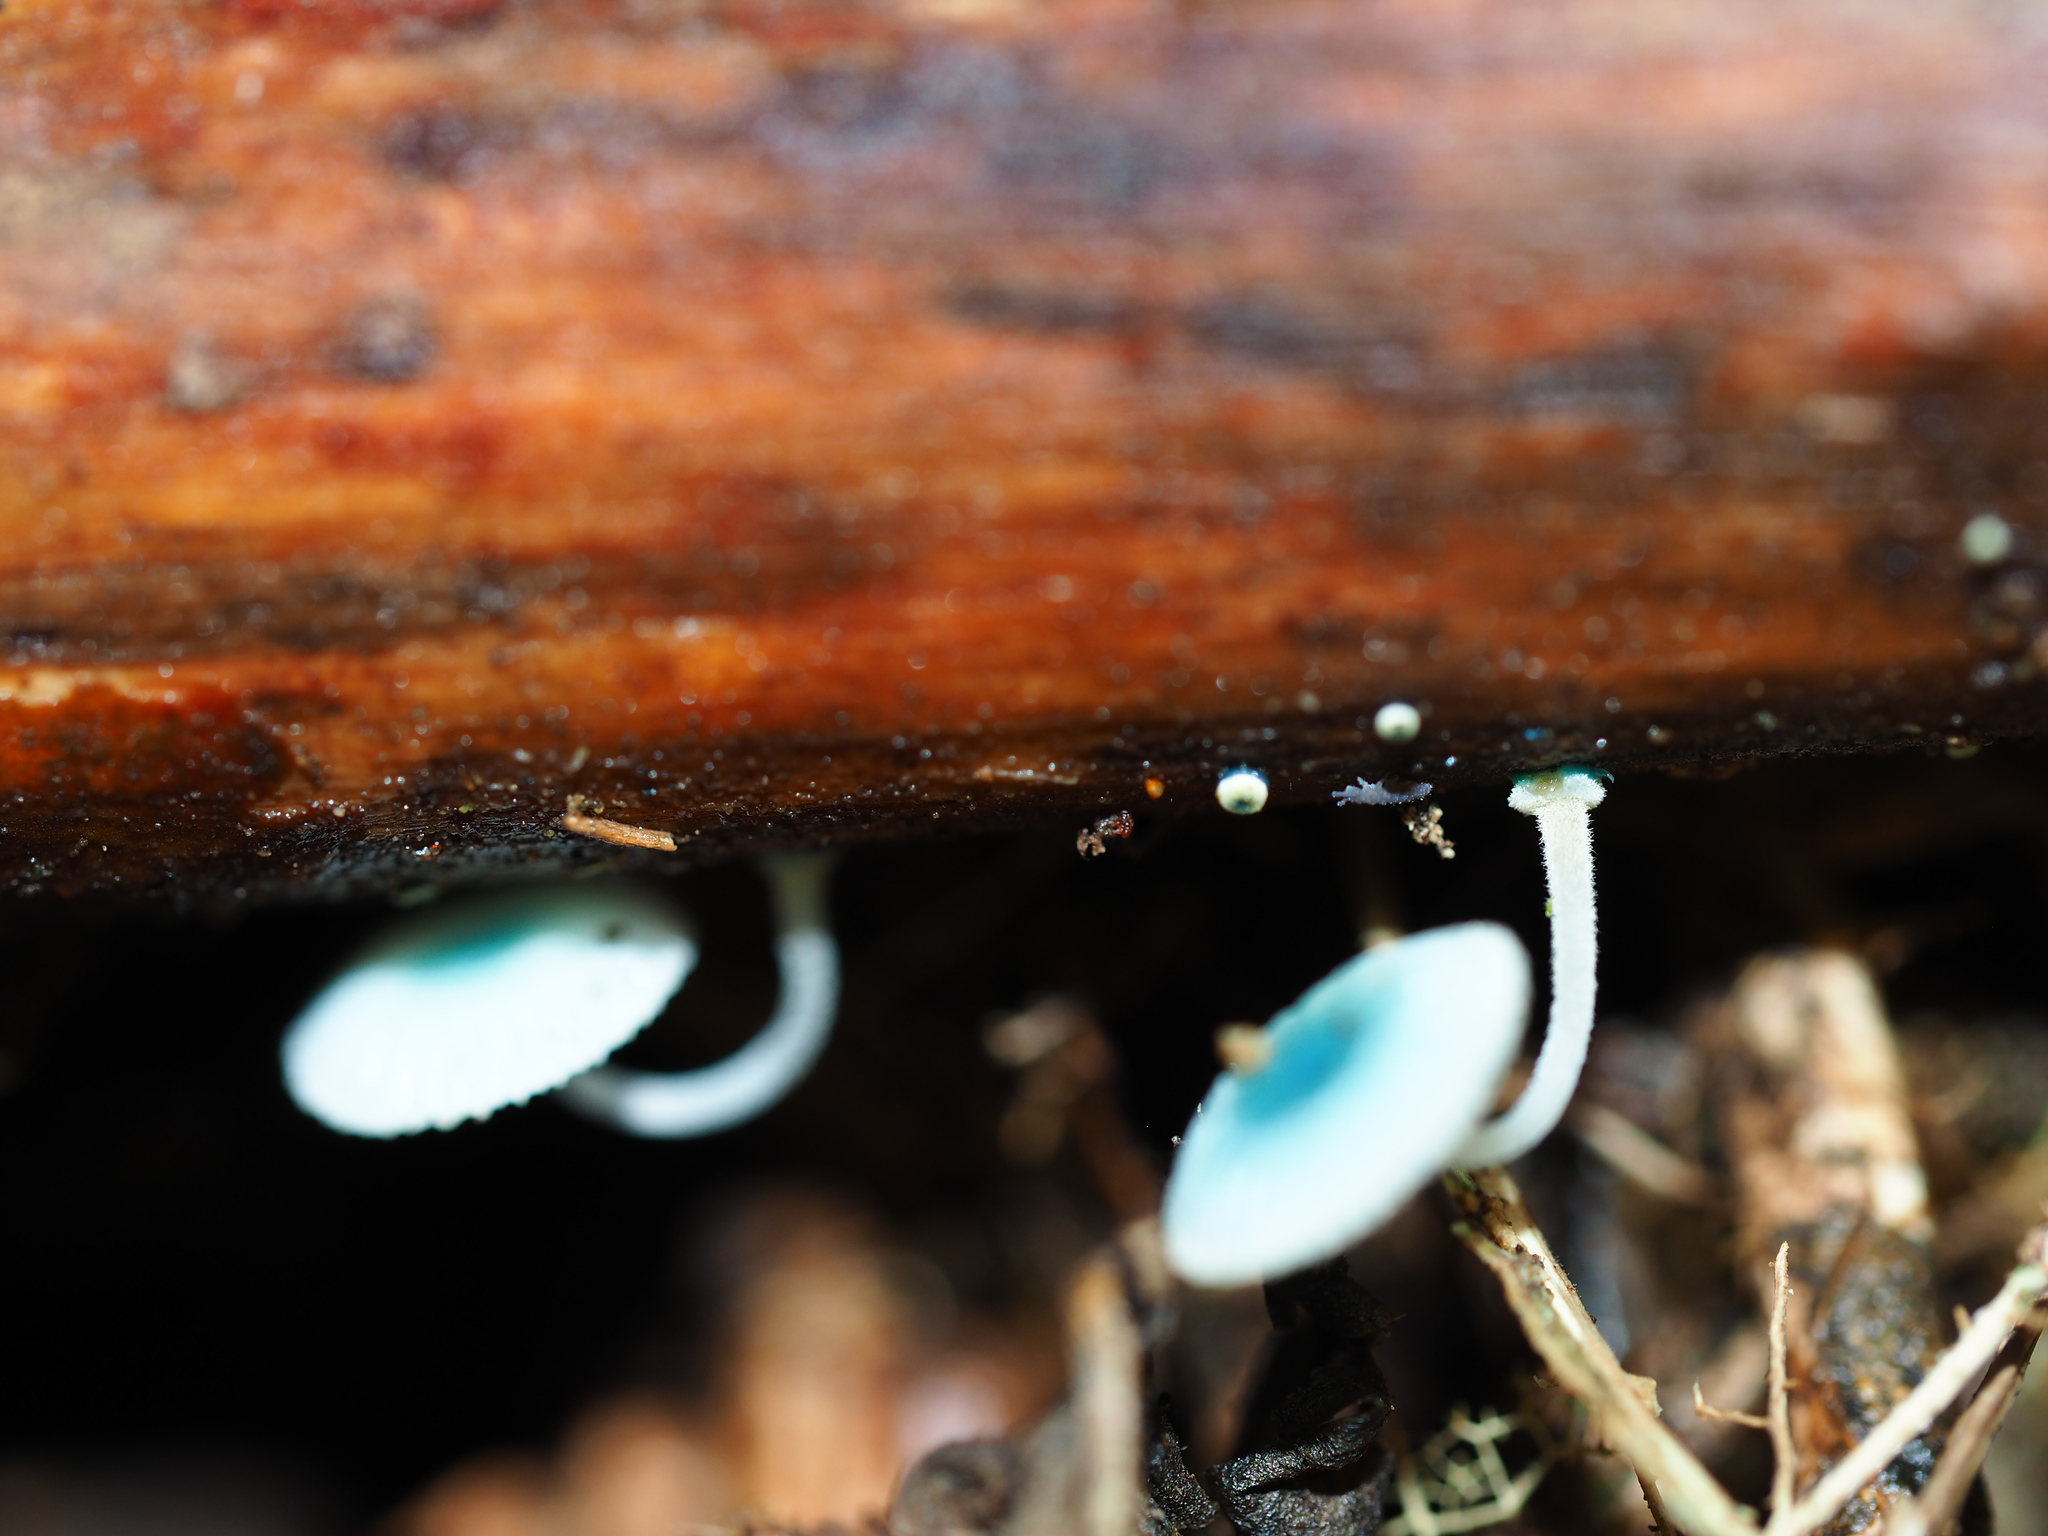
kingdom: Fungi
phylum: Basidiomycota
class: Agaricomycetes
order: Agaricales
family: Mycenaceae
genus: Mycena
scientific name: Mycena interrupta
